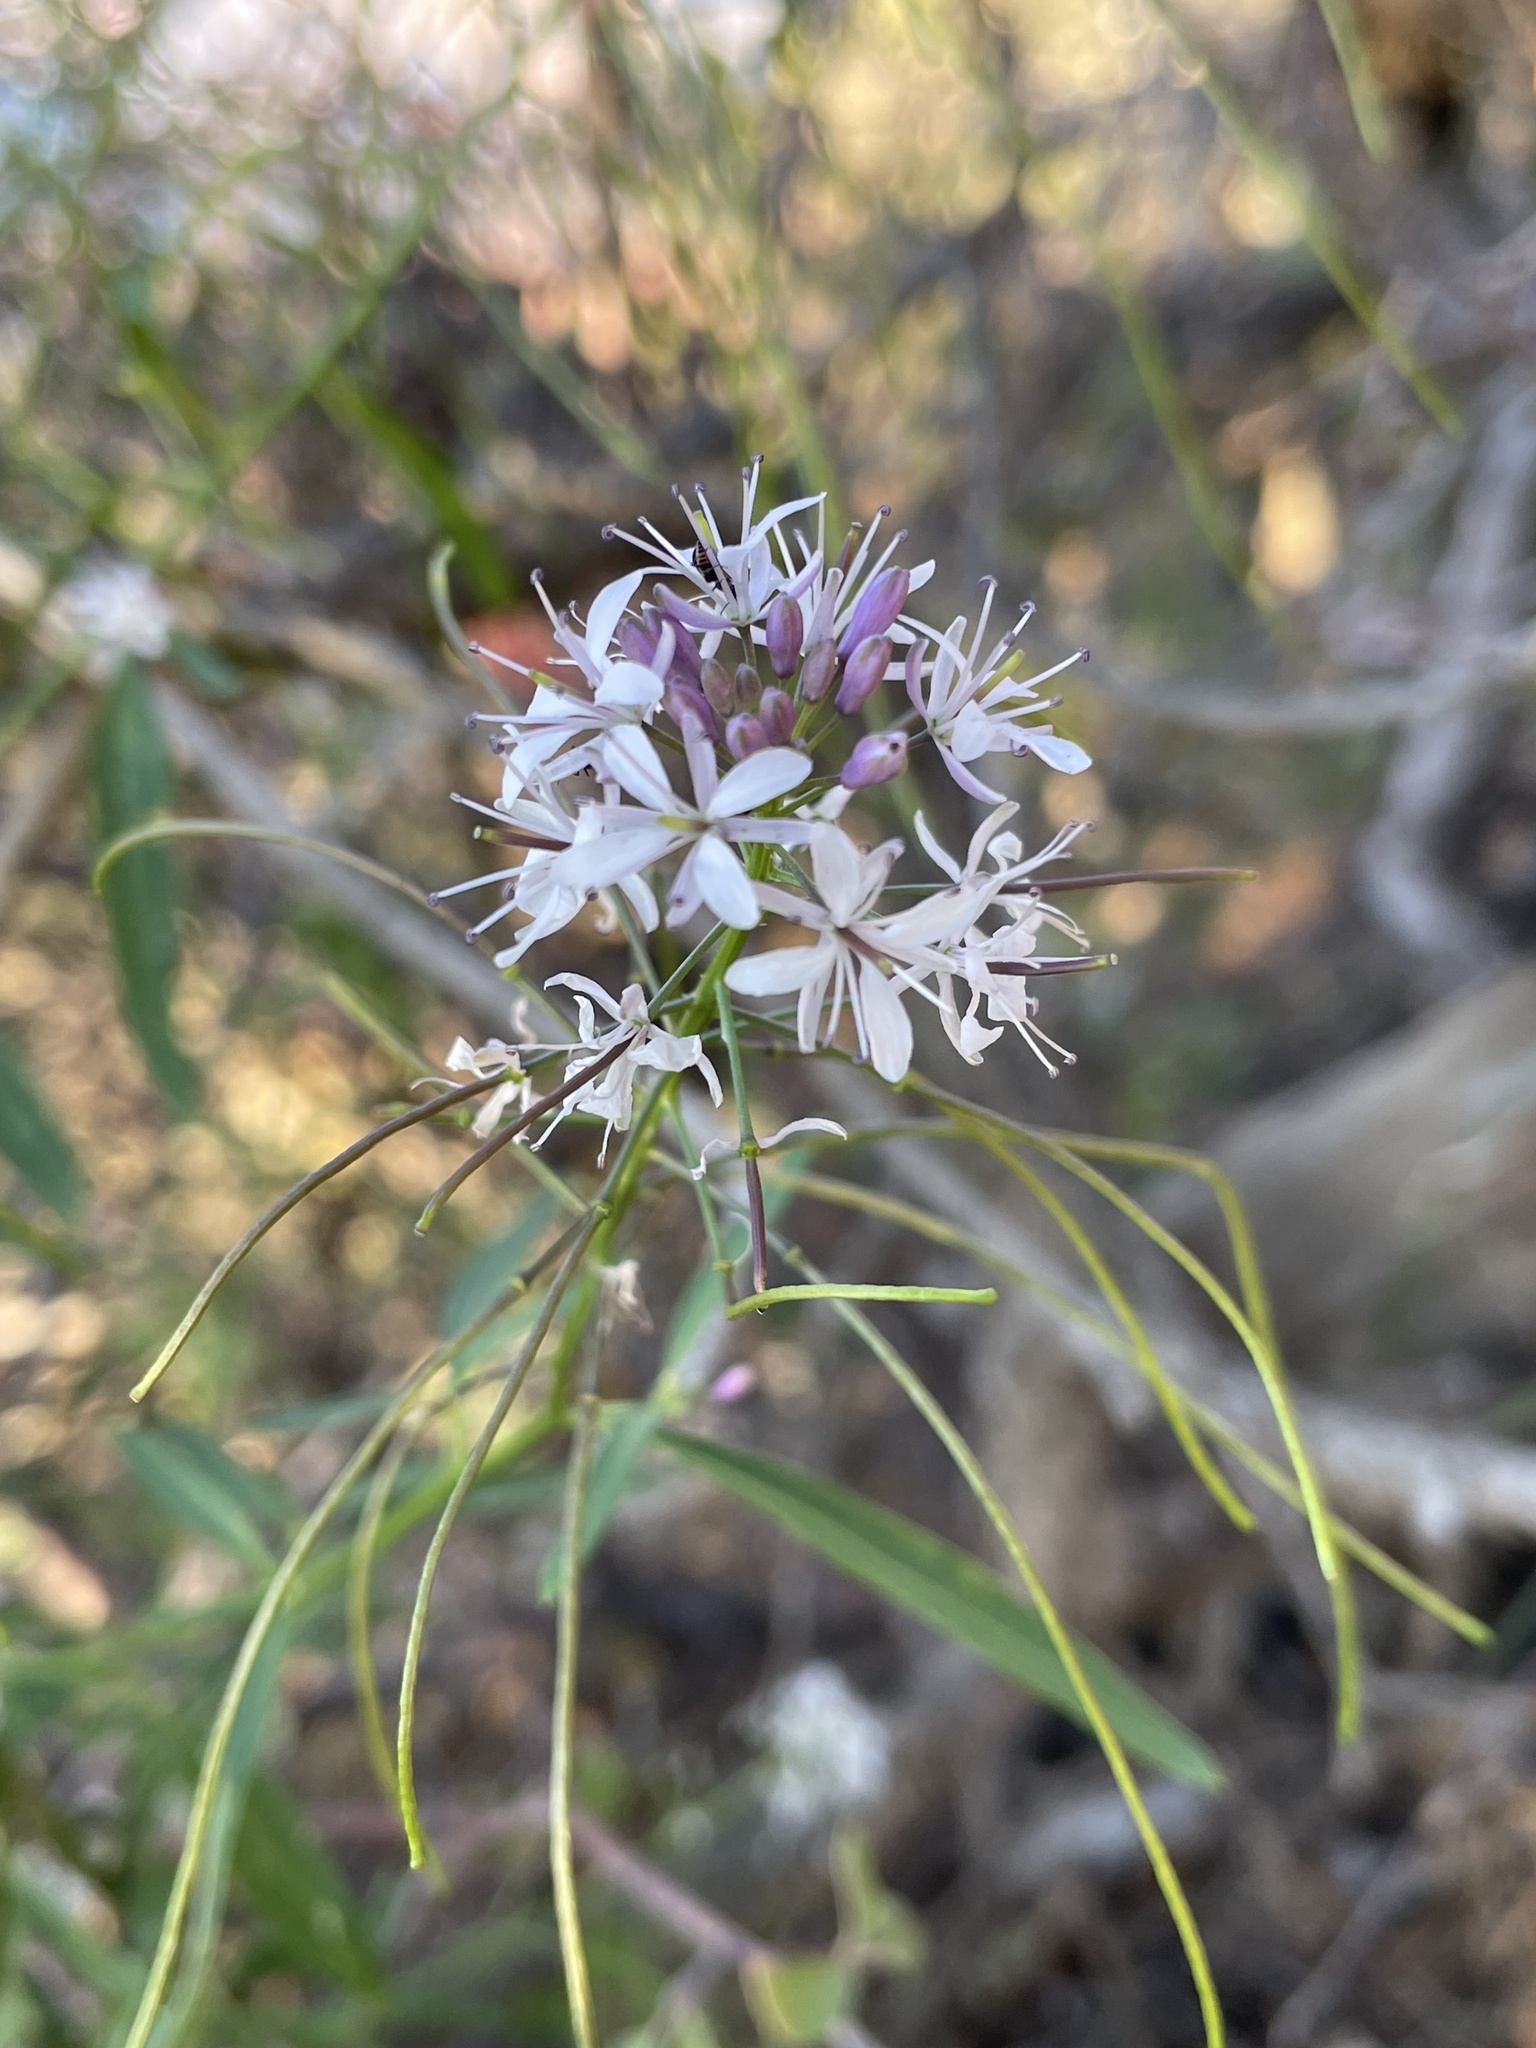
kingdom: Plantae
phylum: Tracheophyta
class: Magnoliopsida
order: Brassicales
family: Cleomaceae
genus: Cleomella
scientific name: Cleomella serrulata
